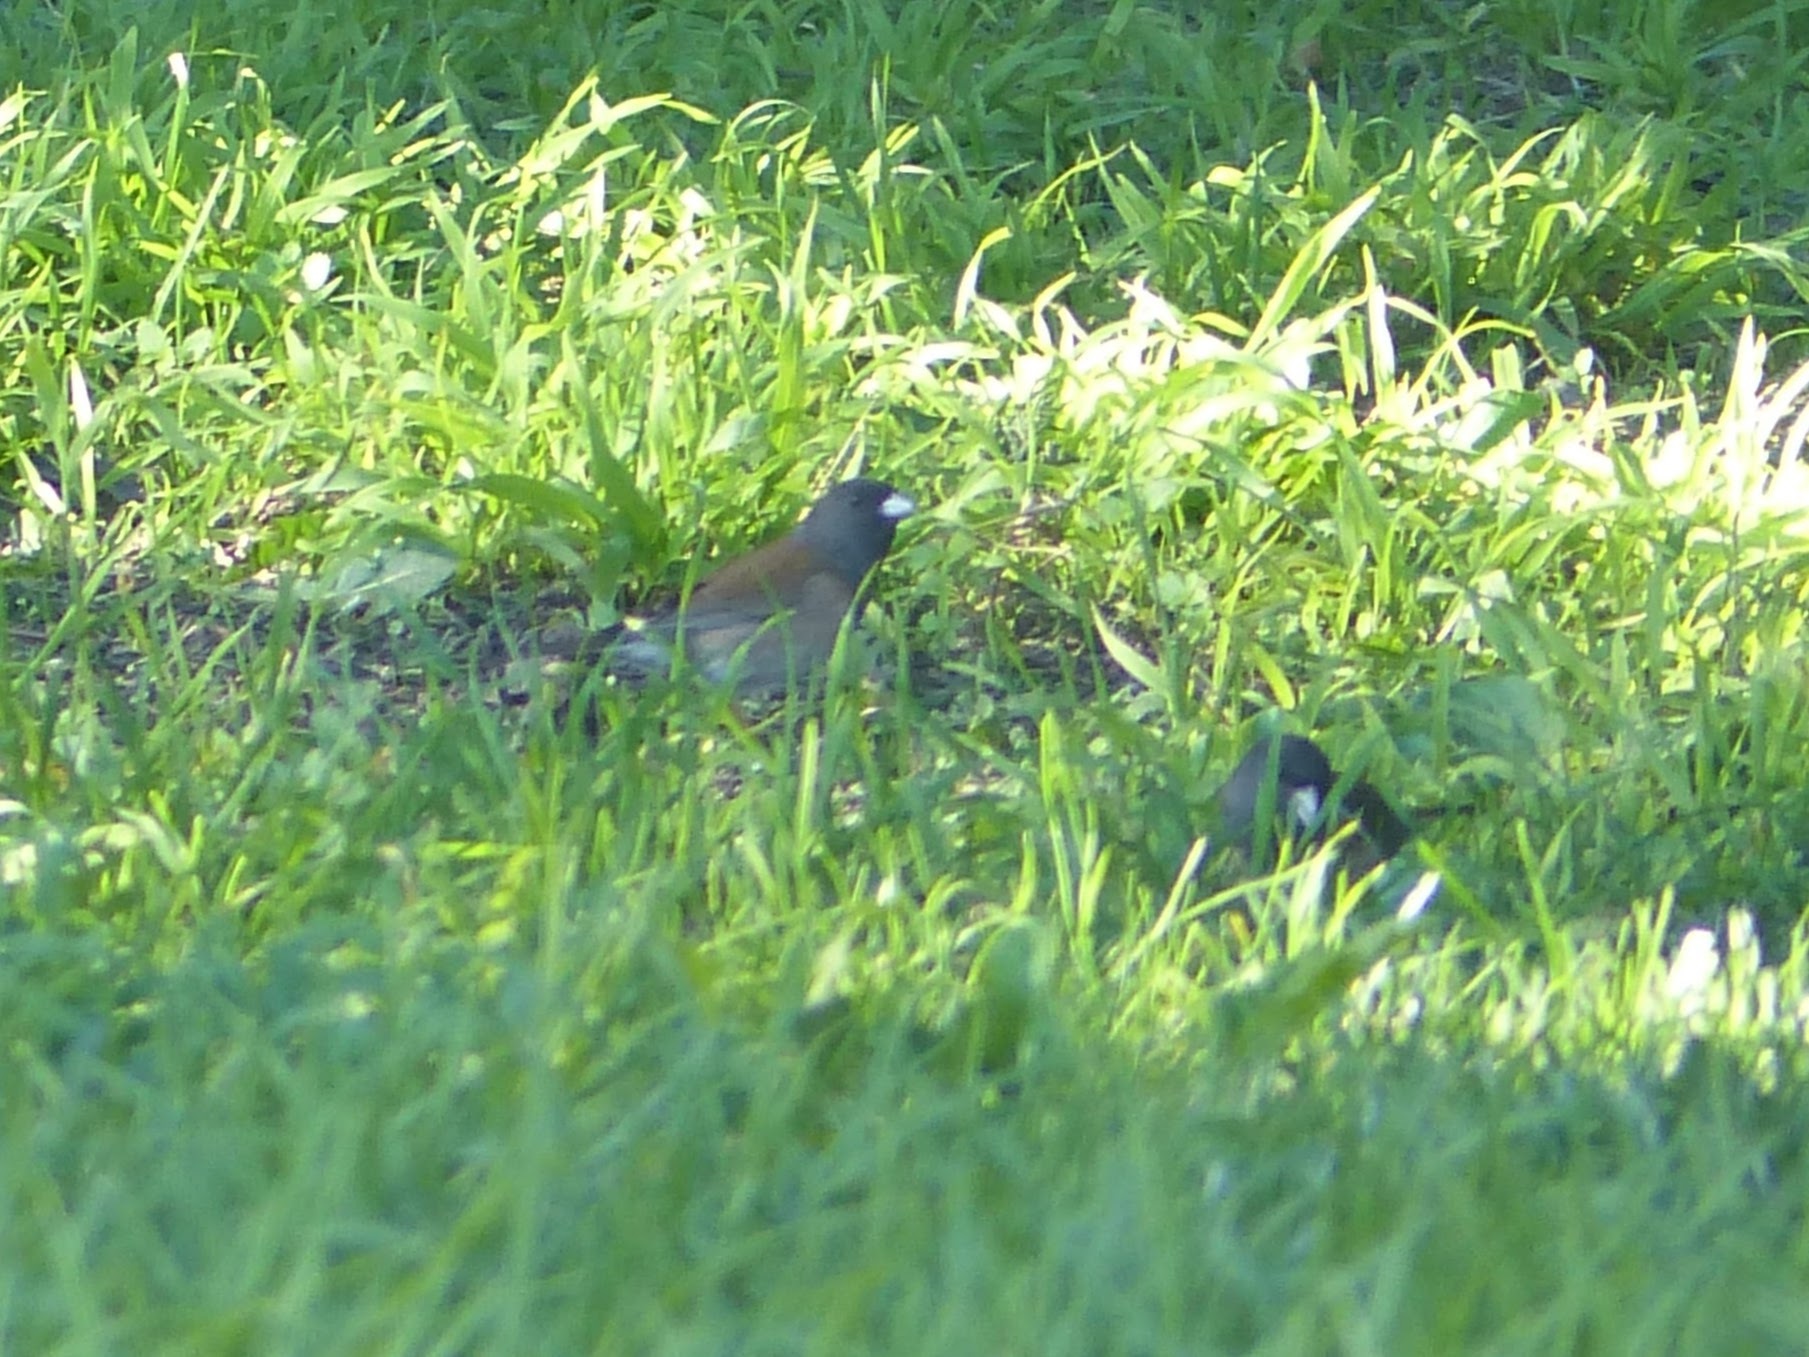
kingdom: Animalia
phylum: Chordata
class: Aves
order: Passeriformes
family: Passerellidae
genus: Junco
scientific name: Junco hyemalis
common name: Dark-eyed junco
